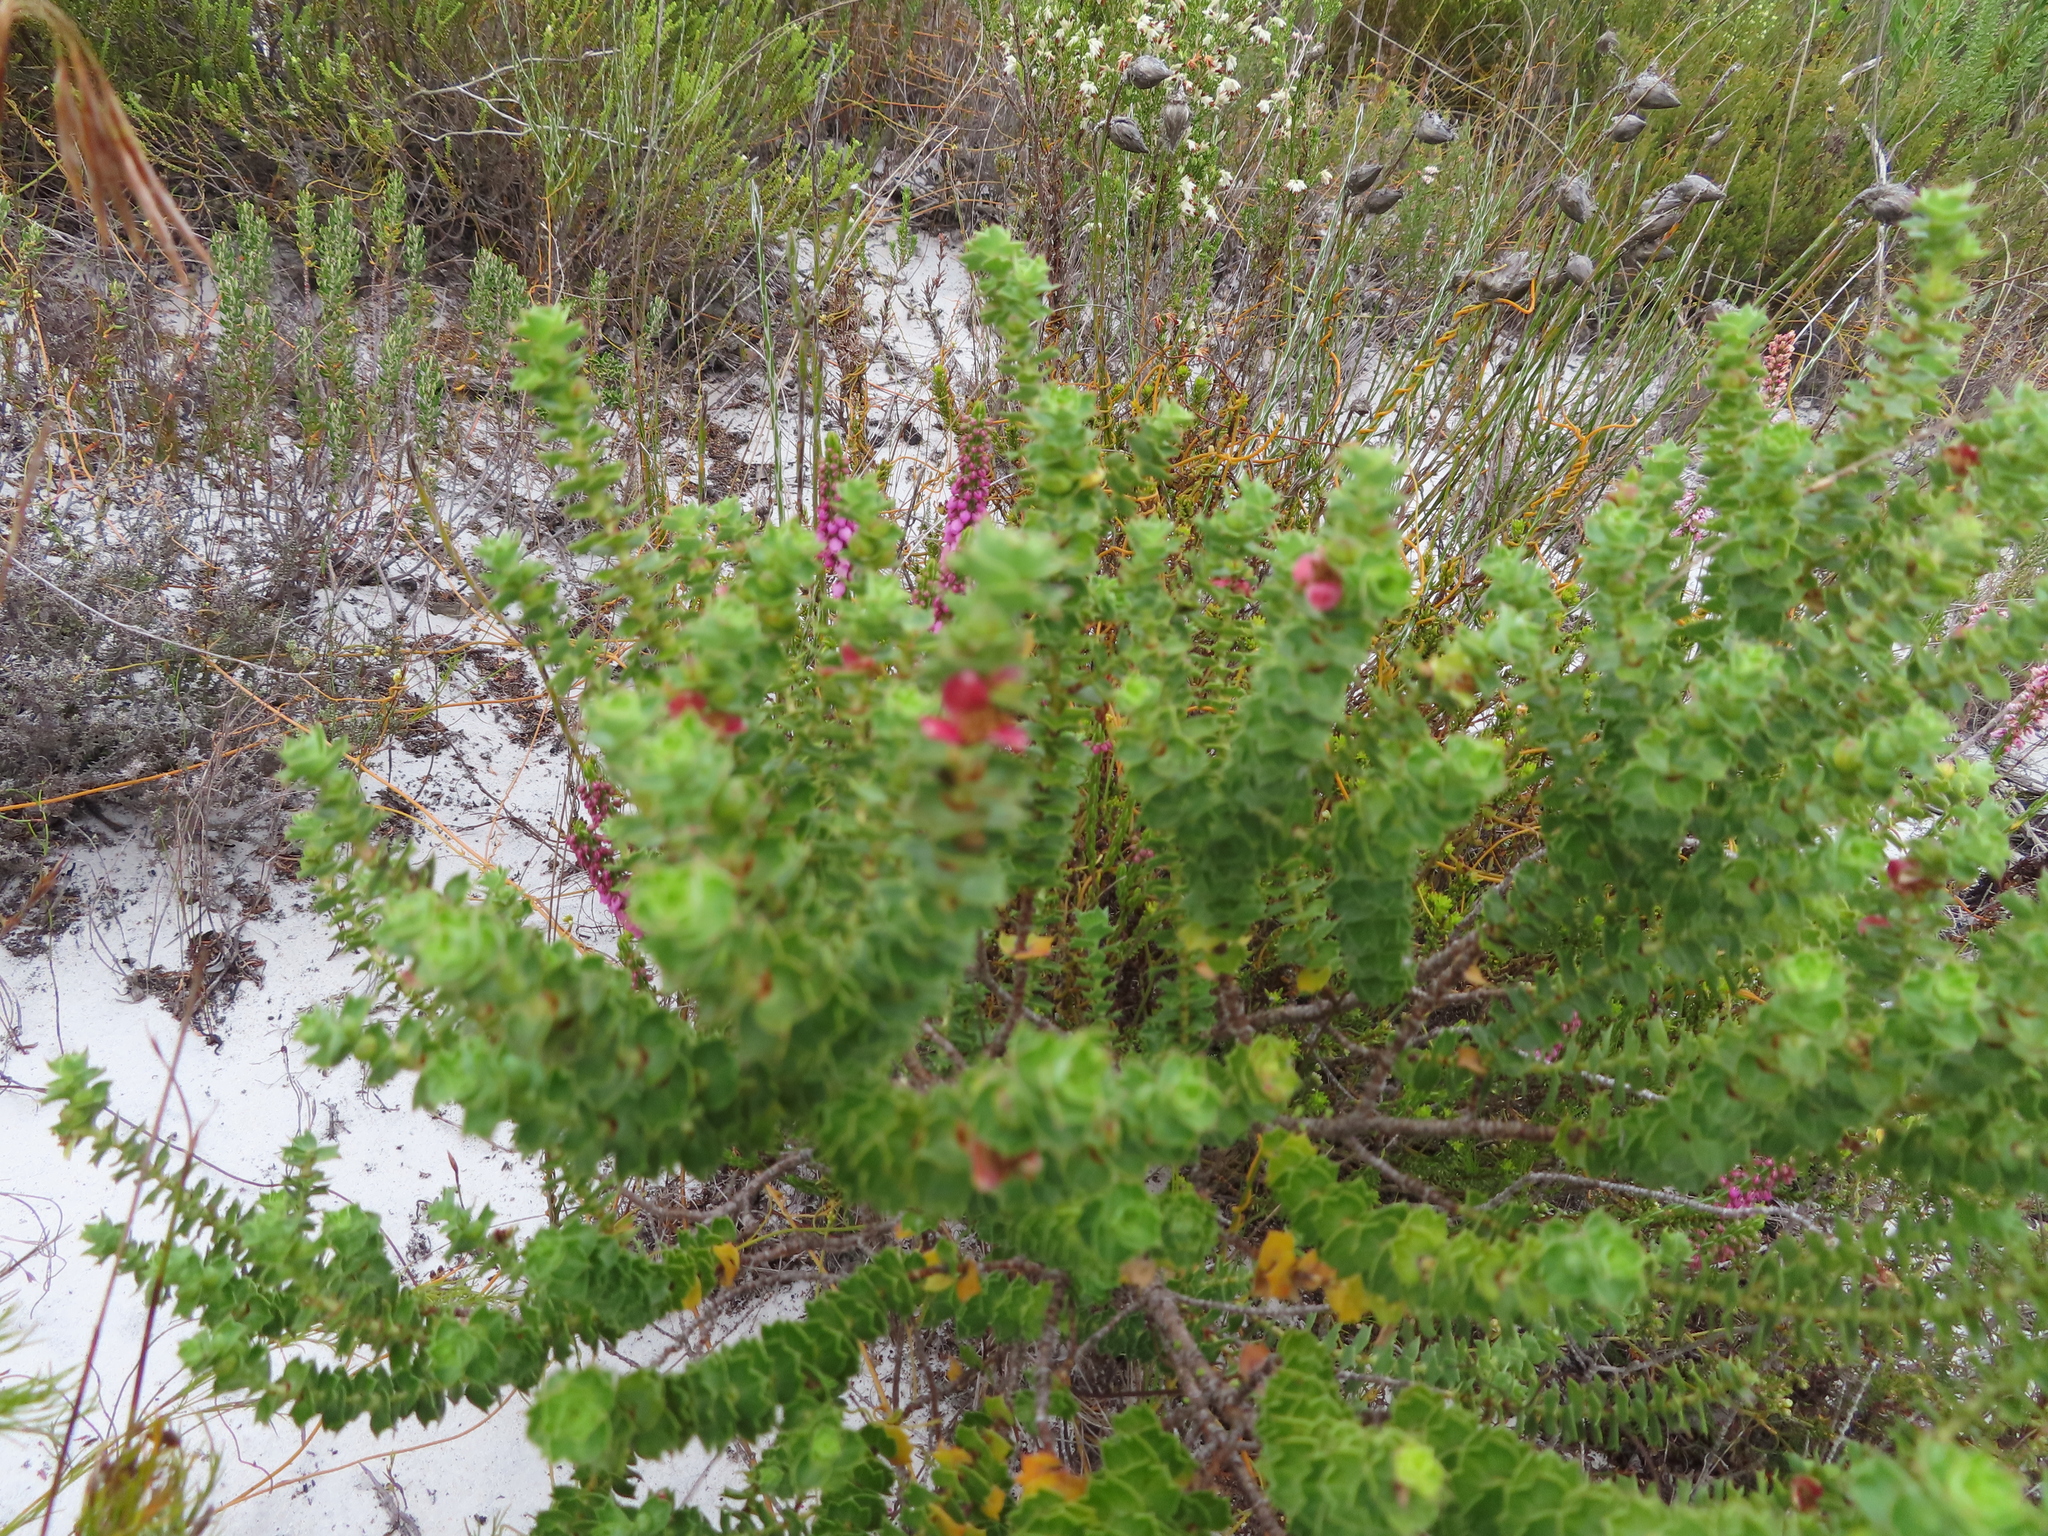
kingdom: Plantae
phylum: Tracheophyta
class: Magnoliopsida
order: Rosales
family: Rosaceae
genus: Cliffortia
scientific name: Cliffortia schlechteri
